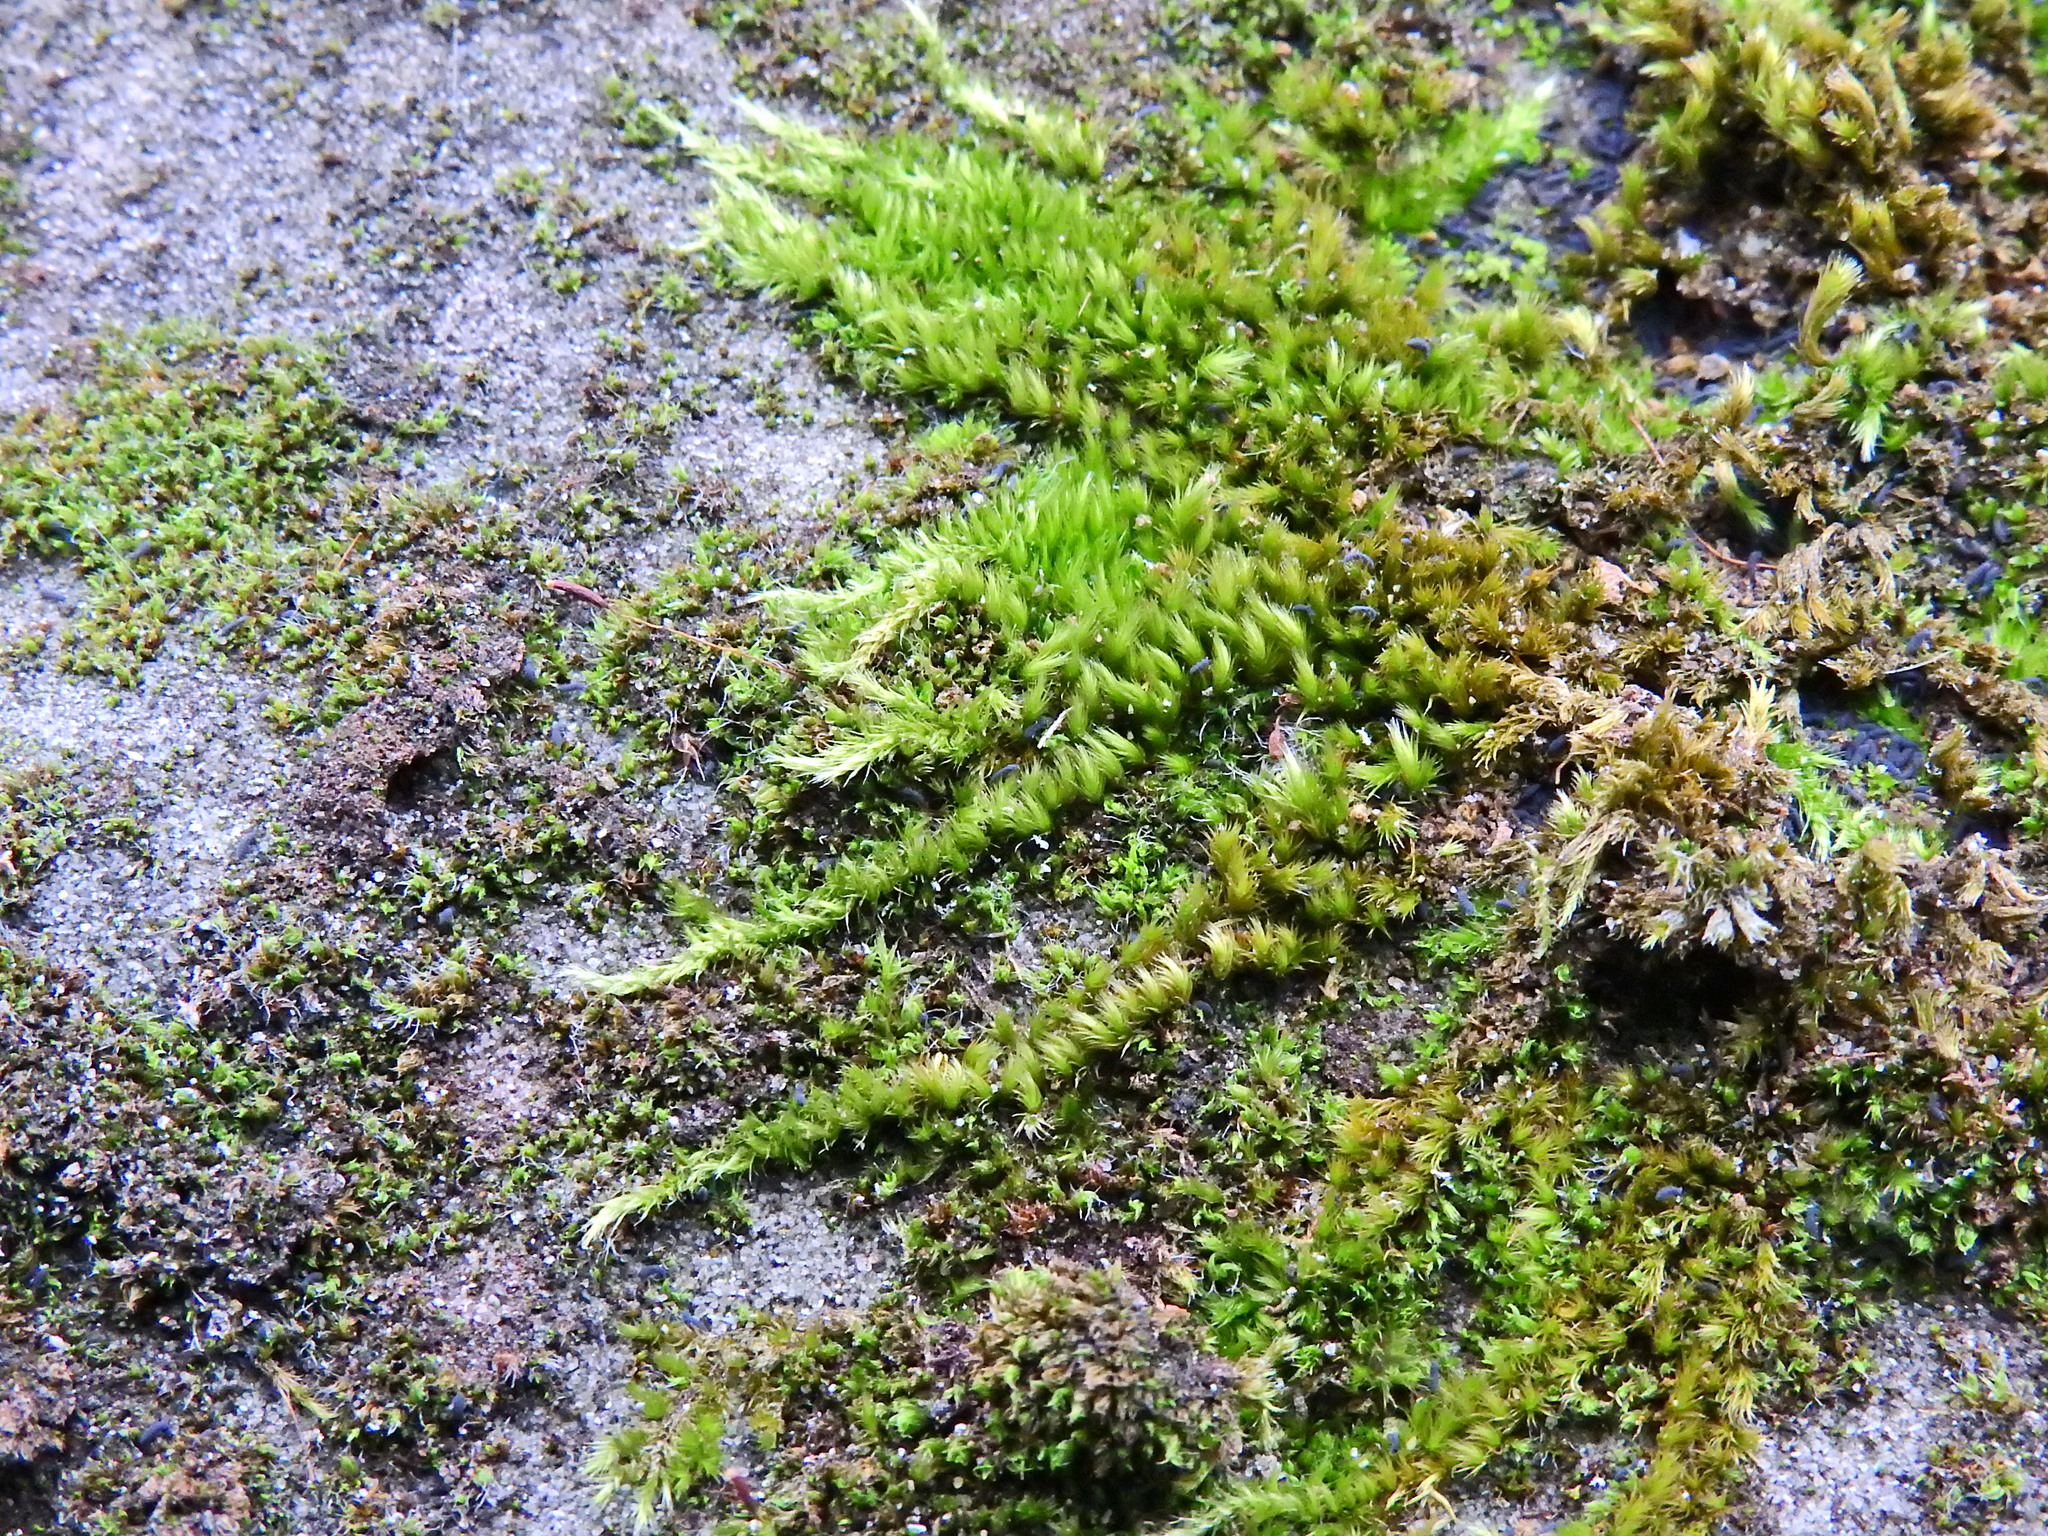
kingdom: Plantae
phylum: Bryophyta
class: Bryopsida
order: Hypnales
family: Brachytheciaceae
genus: Homalothecium
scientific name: Homalothecium sericeum
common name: Silky wall feather-moss
